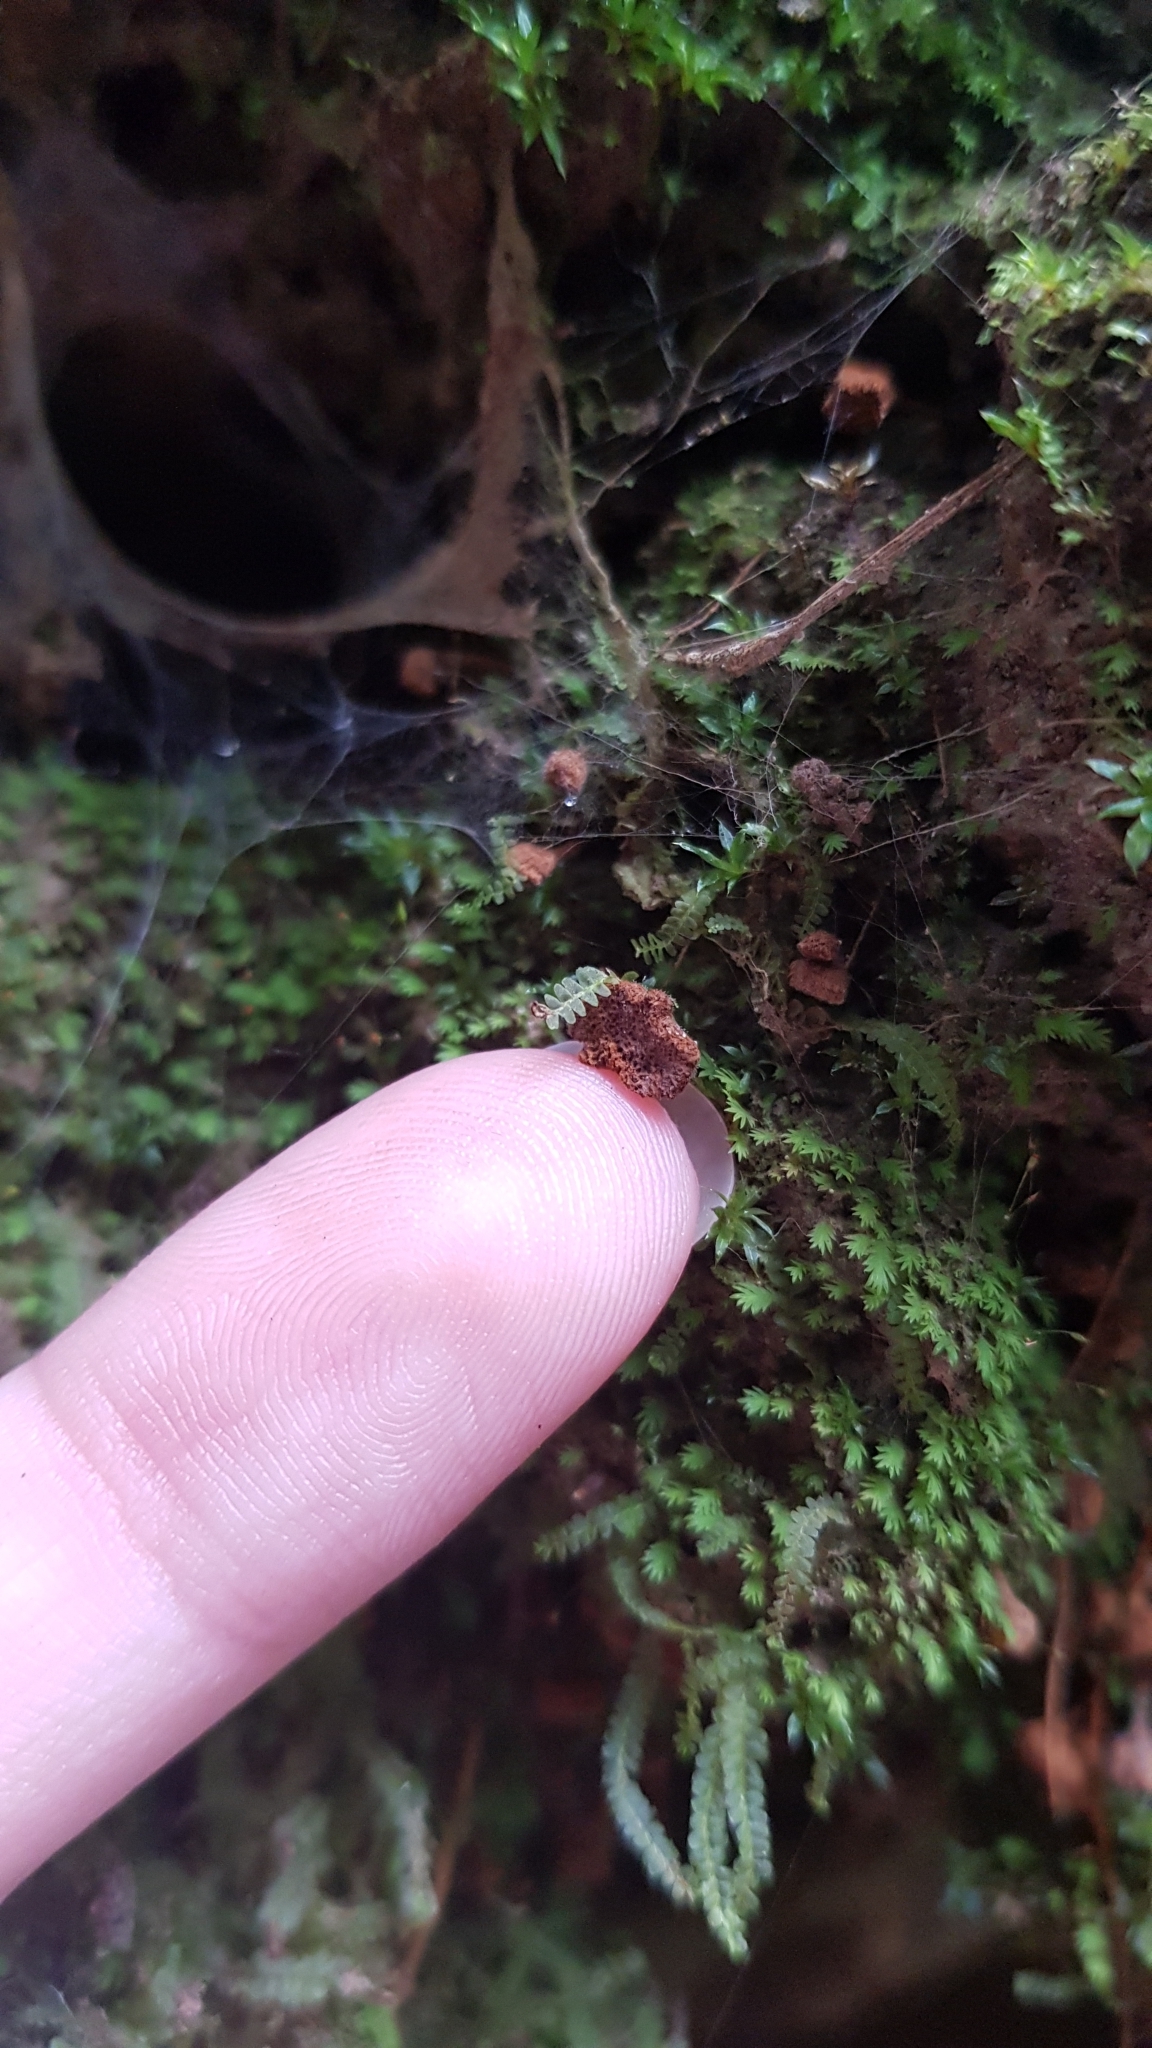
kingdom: Fungi
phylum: Basidiomycota
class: Agaricomycetes
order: Hymenochaetales
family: Hymenochaetaceae
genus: Coltriciella
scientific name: Coltriciella dependens
